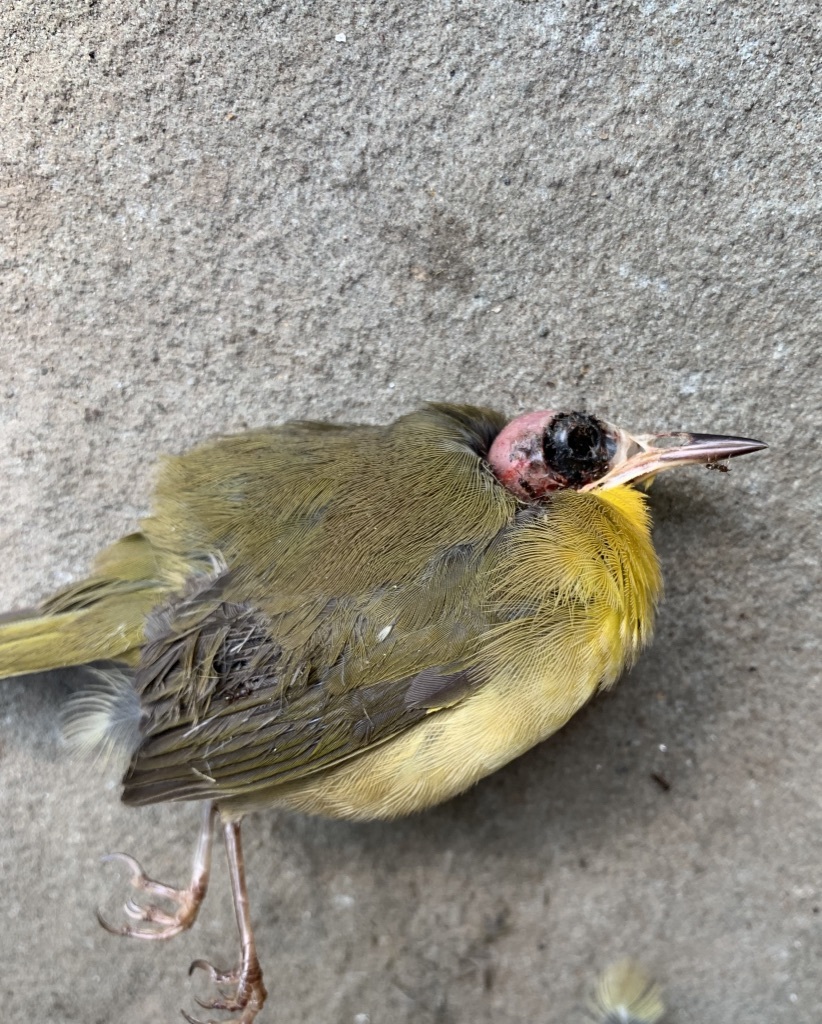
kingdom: Animalia
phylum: Chordata
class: Aves
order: Passeriformes
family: Parulidae
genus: Geothlypis
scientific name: Geothlypis trichas
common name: Common yellowthroat
